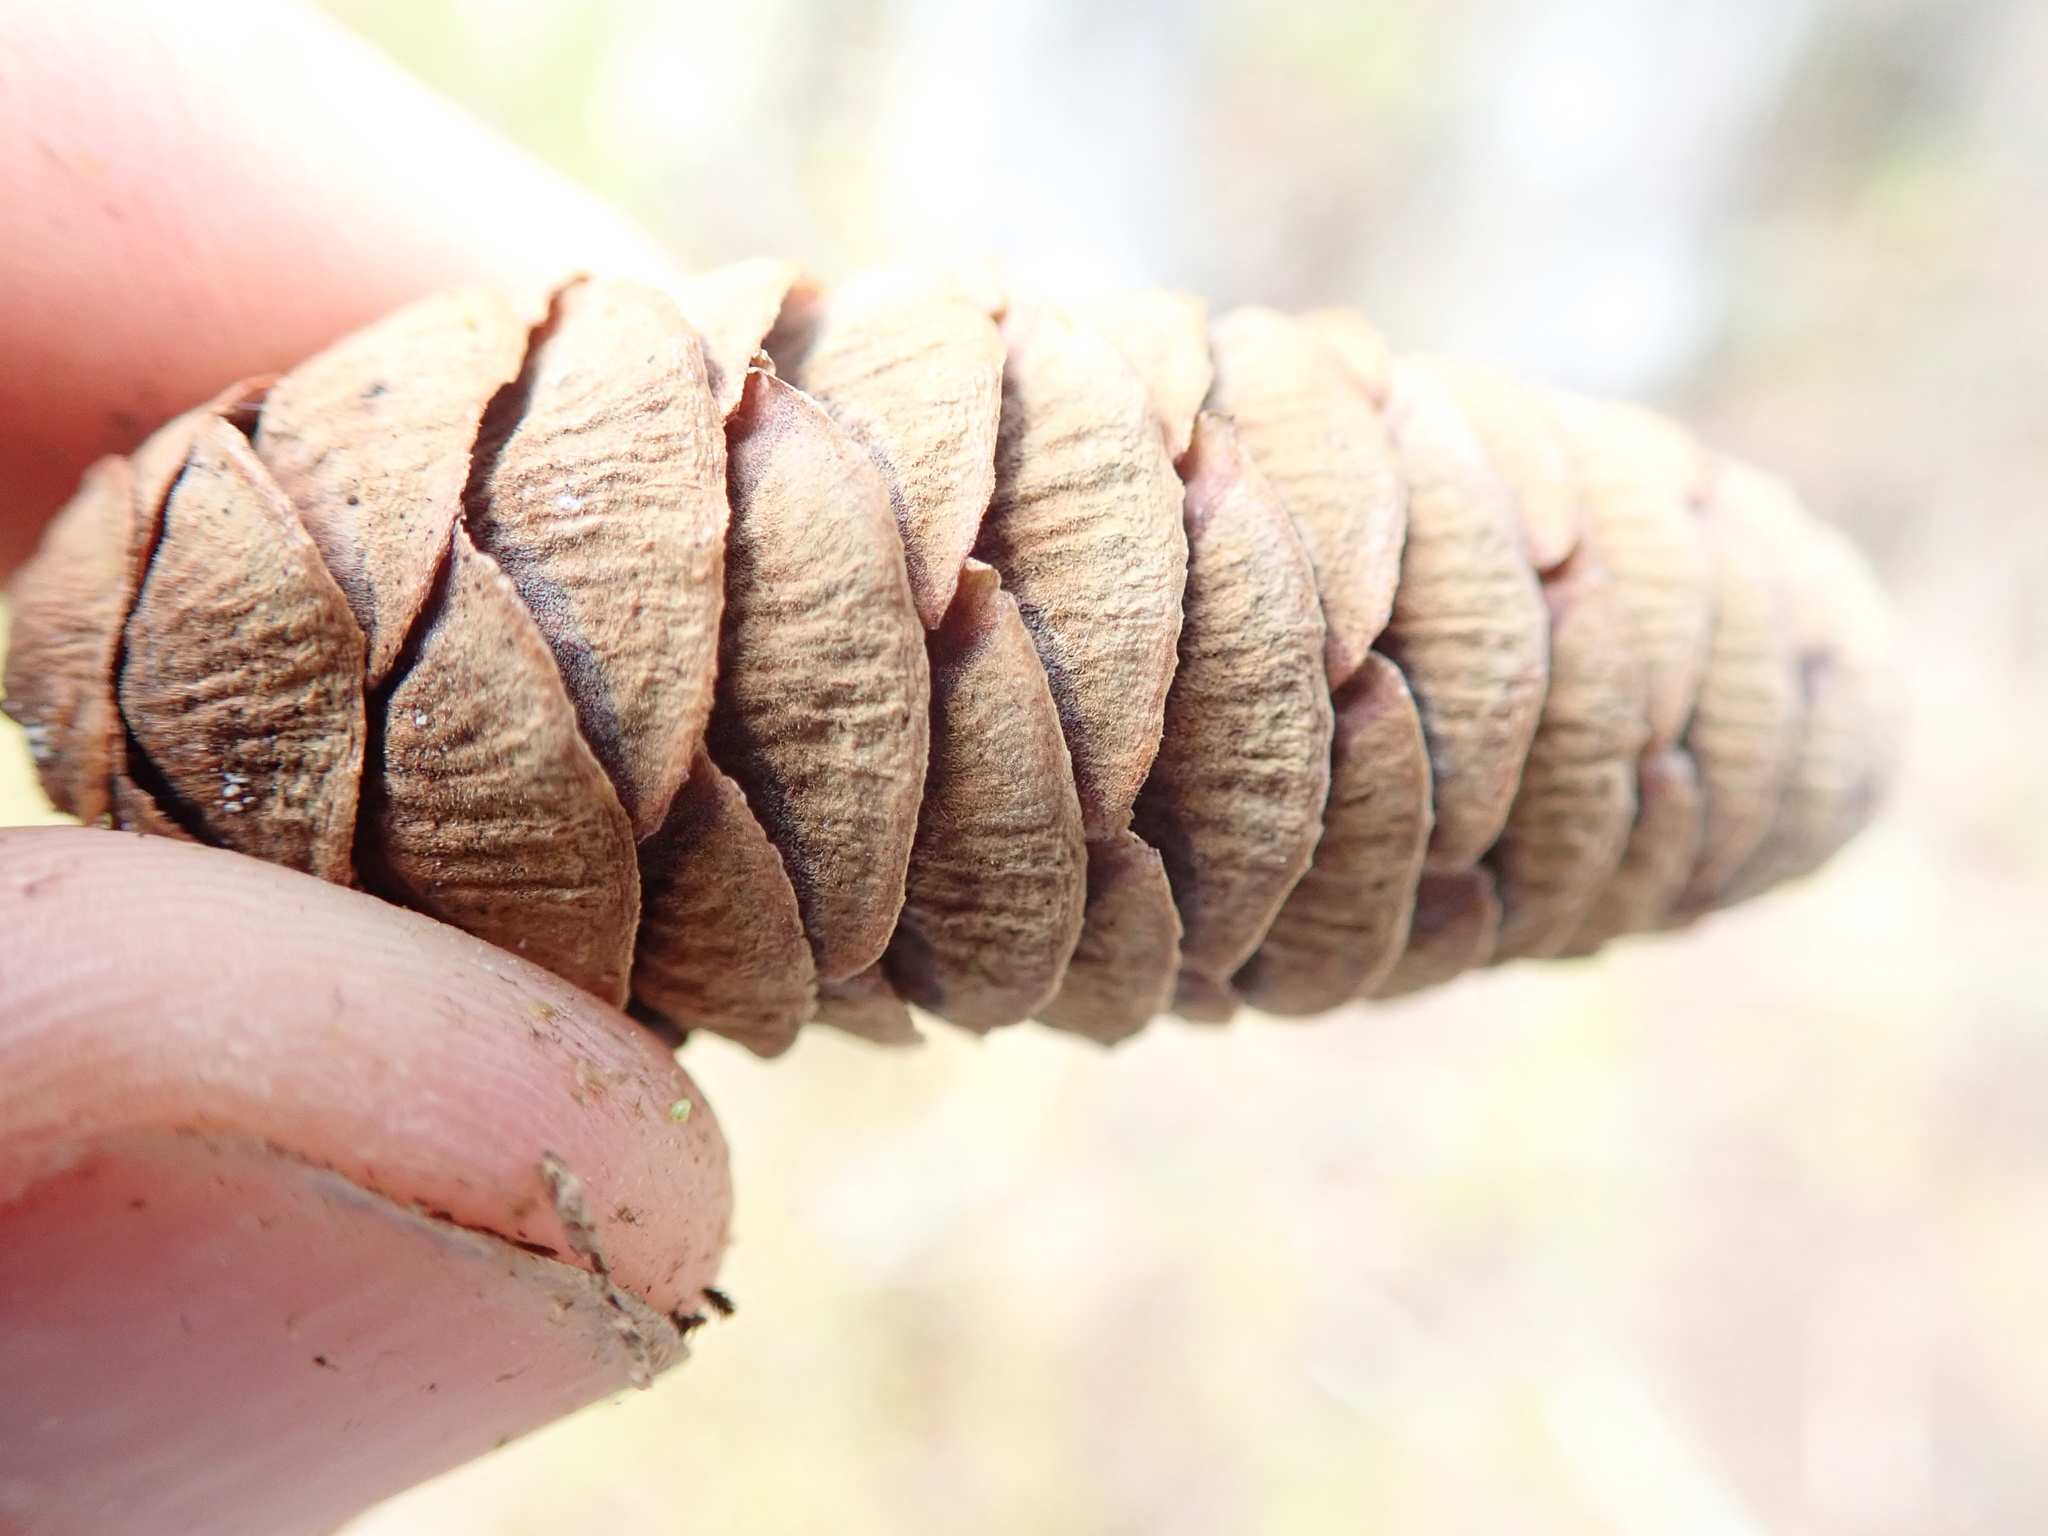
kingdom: Plantae
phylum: Tracheophyta
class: Pinopsida
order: Pinales
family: Pinaceae
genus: Tsuga
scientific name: Tsuga mertensiana
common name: Mountain hemlock
